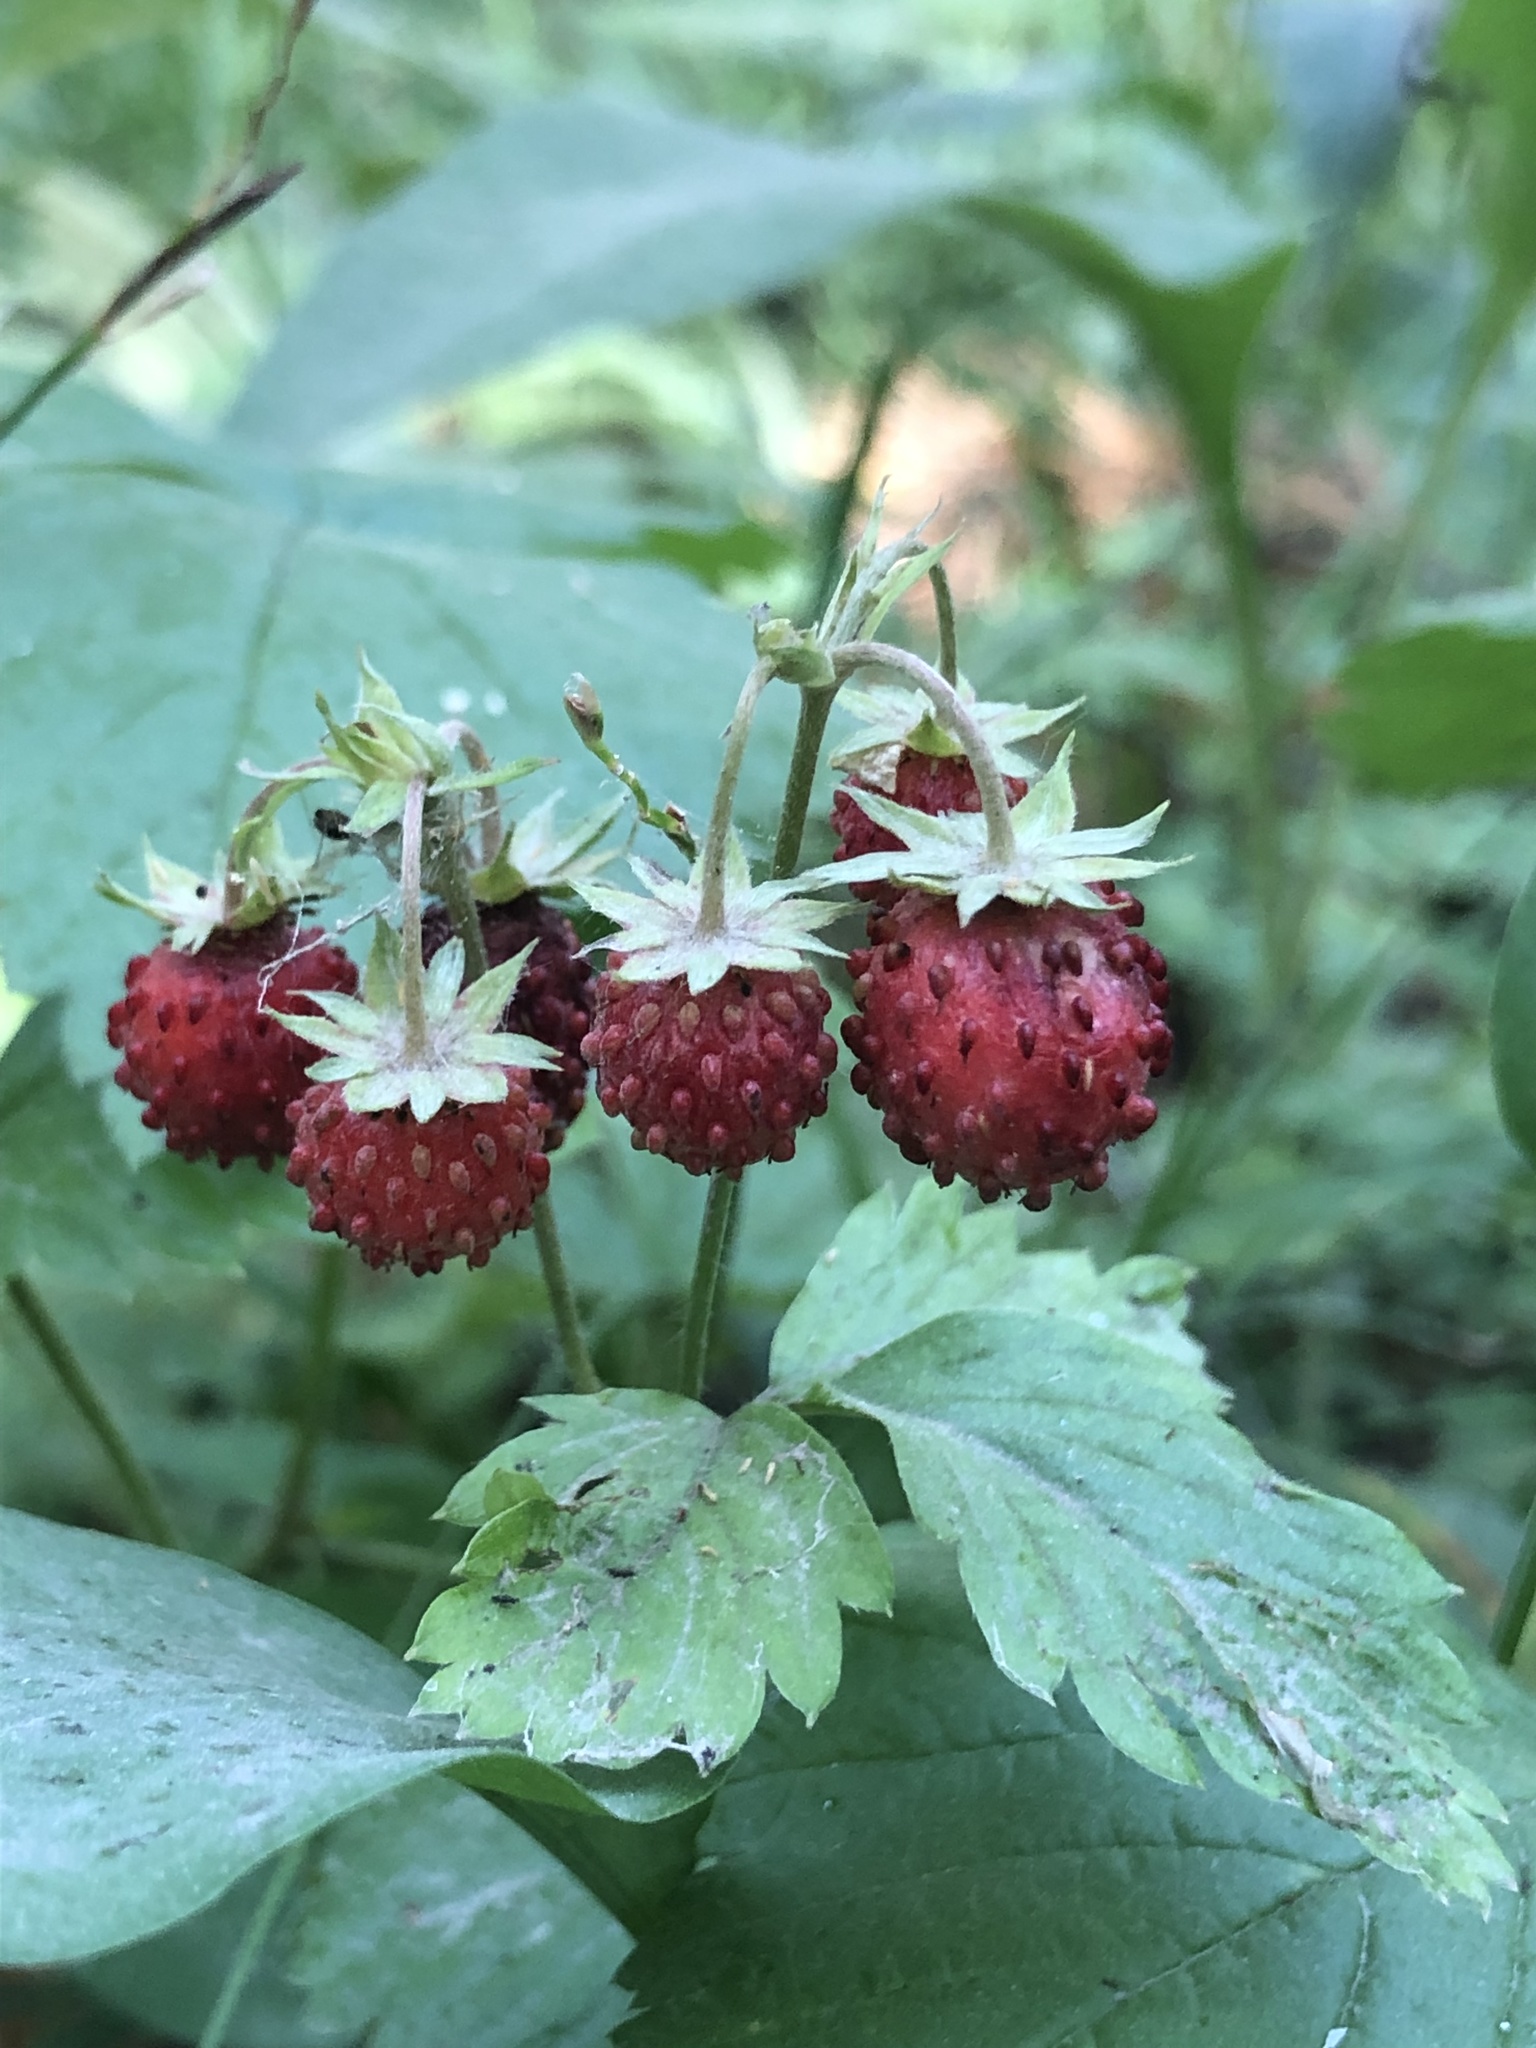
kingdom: Plantae
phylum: Tracheophyta
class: Magnoliopsida
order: Rosales
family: Rosaceae
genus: Fragaria
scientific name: Fragaria vesca
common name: Wild strawberry
